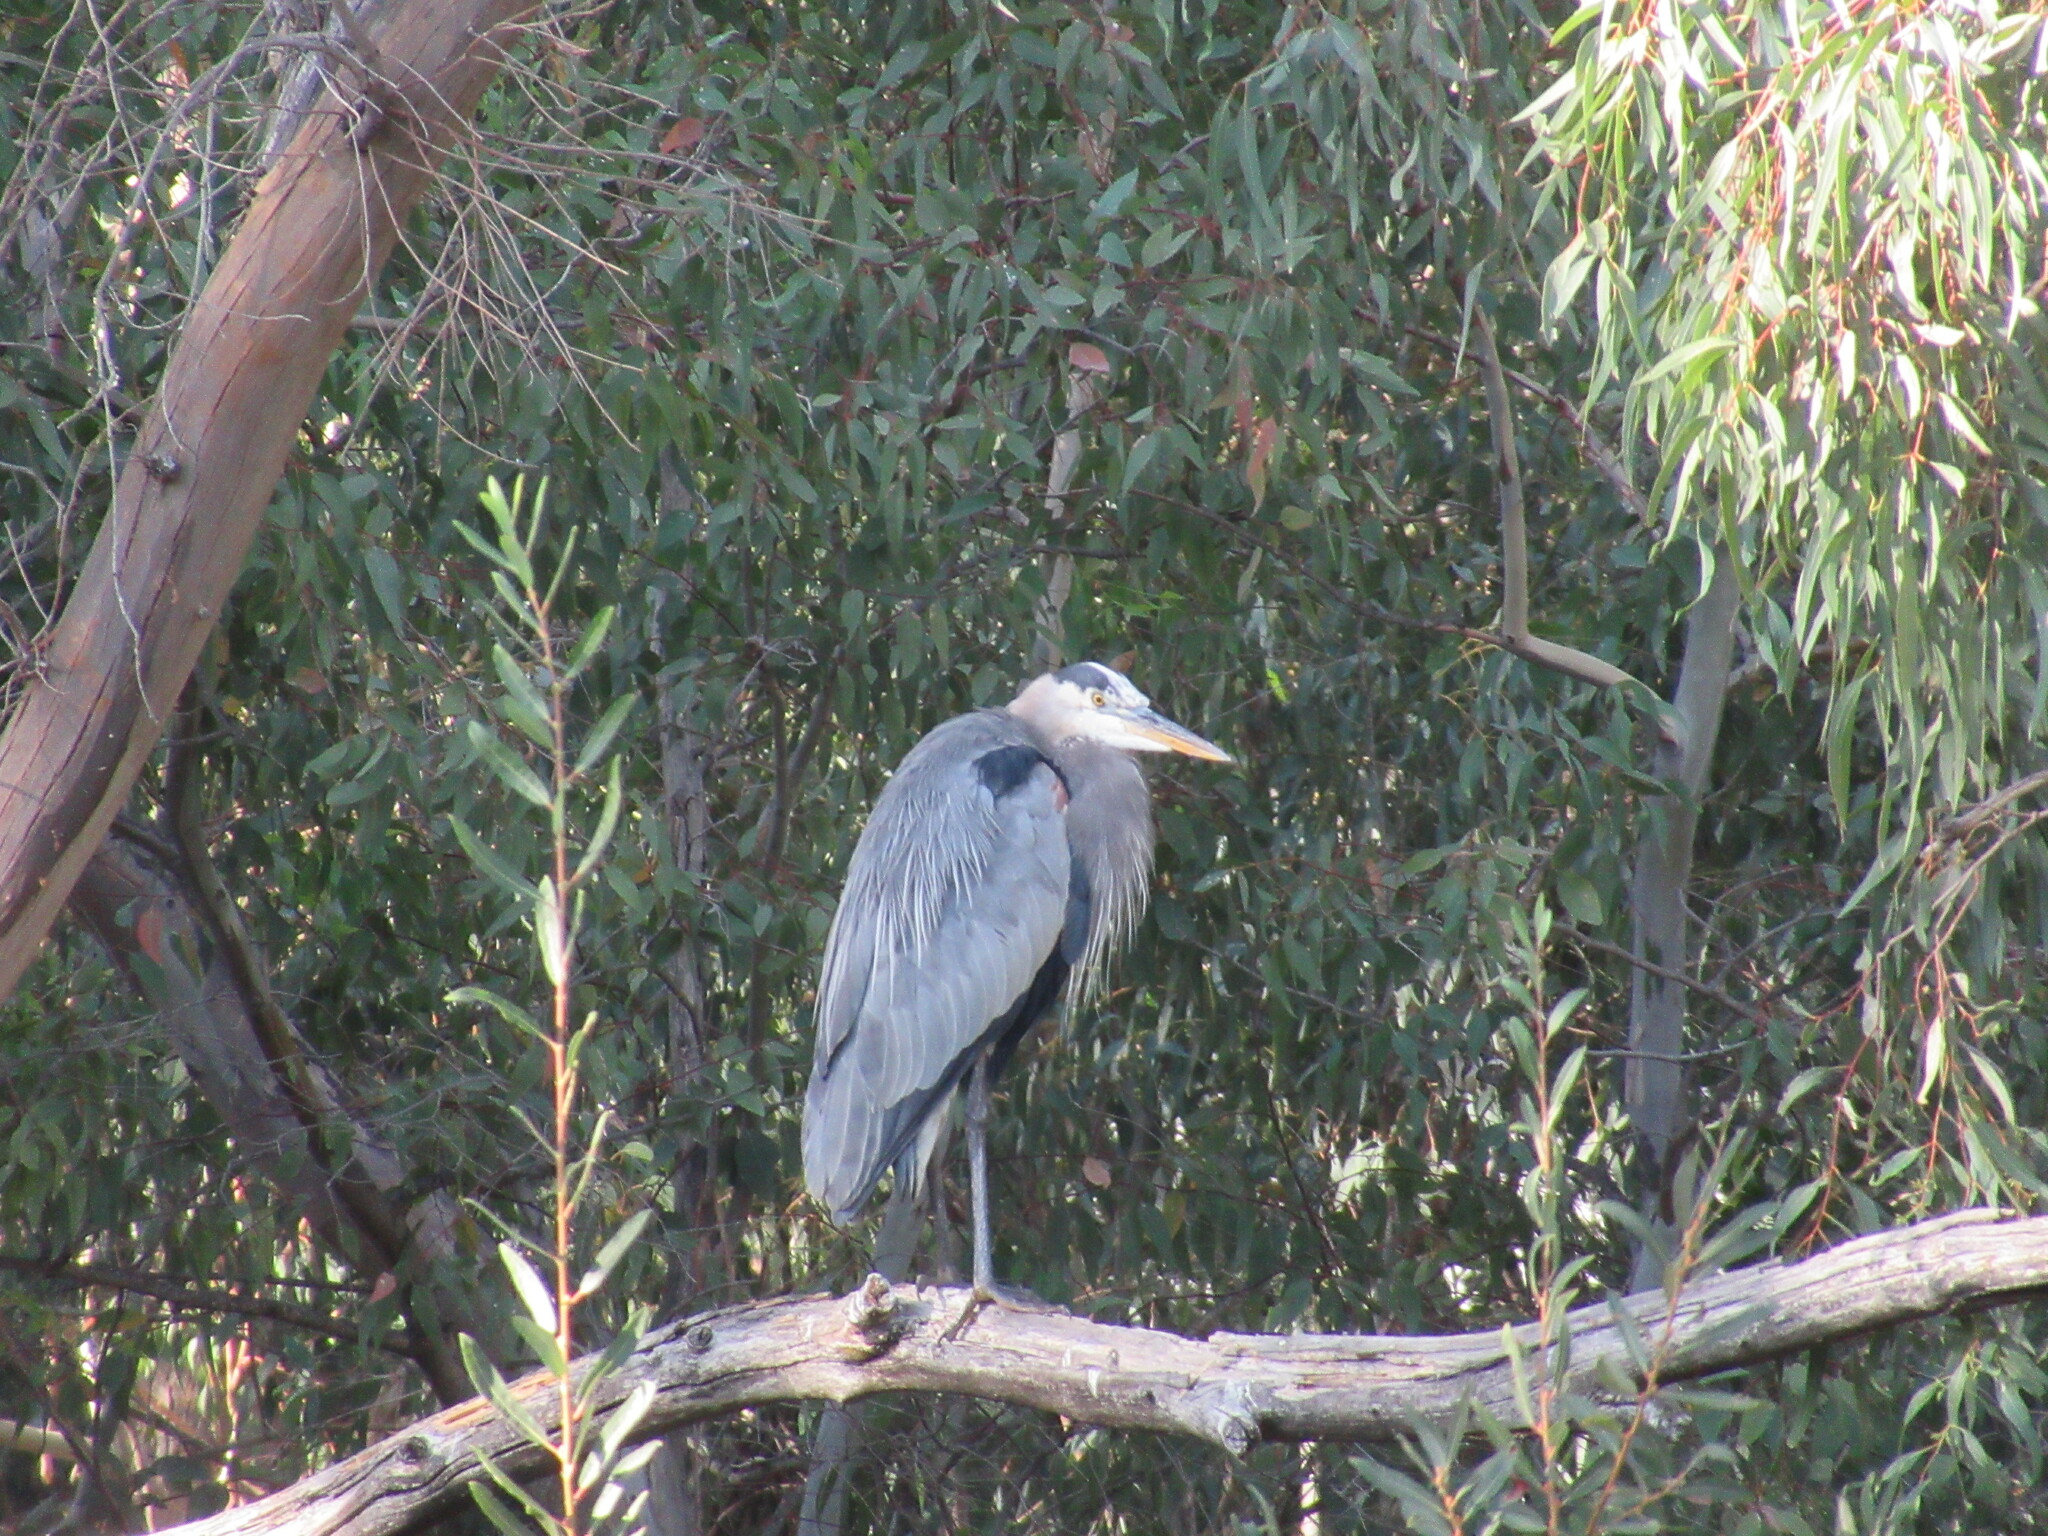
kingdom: Animalia
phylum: Chordata
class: Aves
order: Pelecaniformes
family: Ardeidae
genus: Ardea
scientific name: Ardea herodias
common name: Great blue heron
